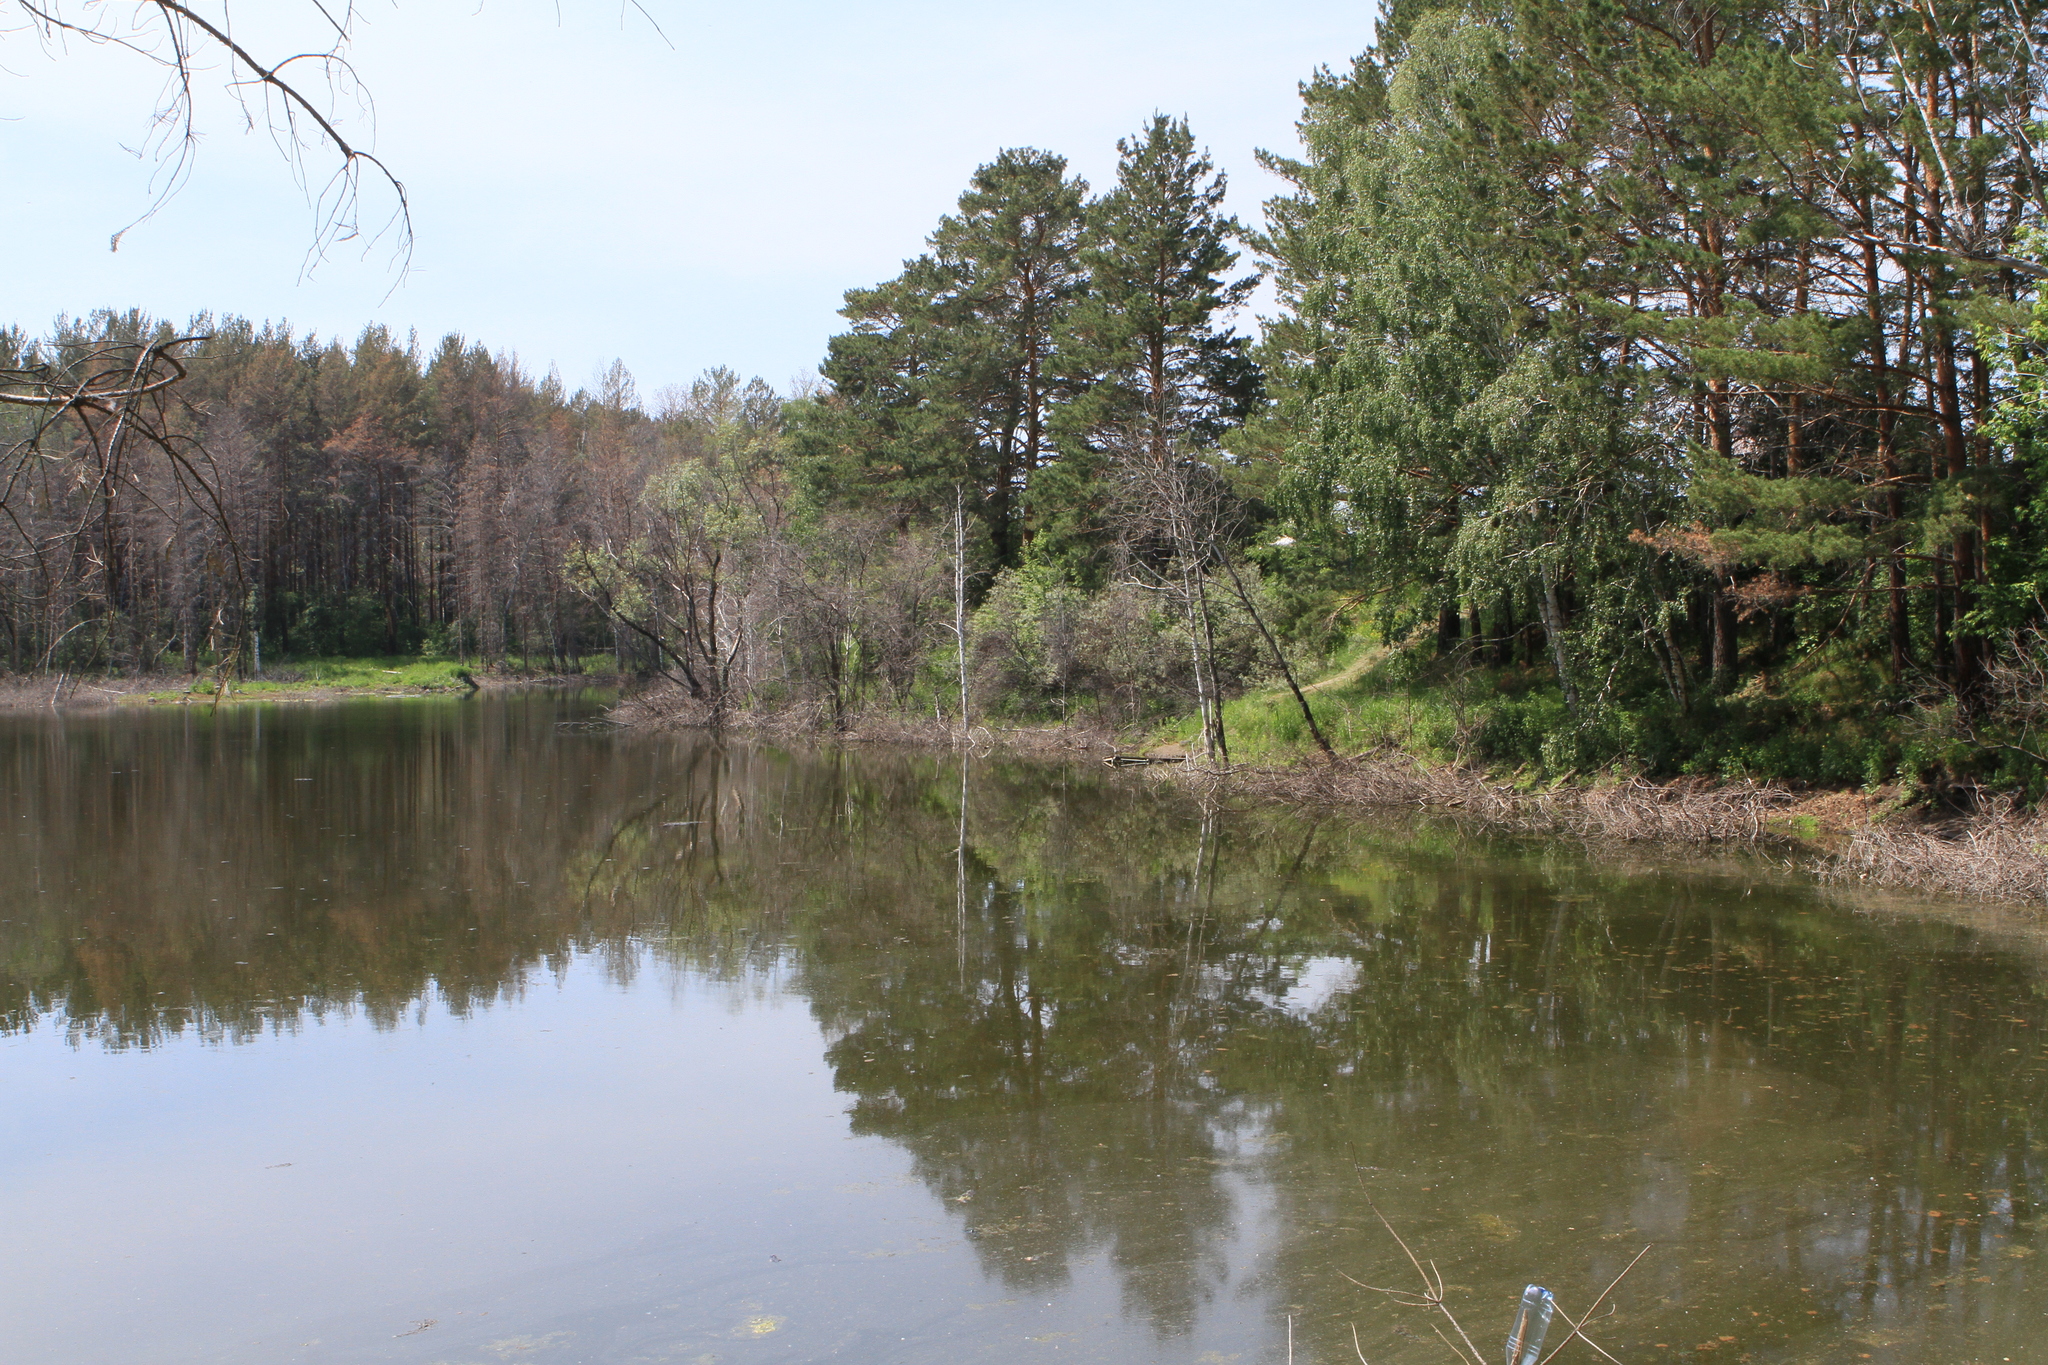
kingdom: Plantae
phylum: Tracheophyta
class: Pinopsida
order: Pinales
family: Pinaceae
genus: Pinus
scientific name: Pinus sylvestris
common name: Scots pine
